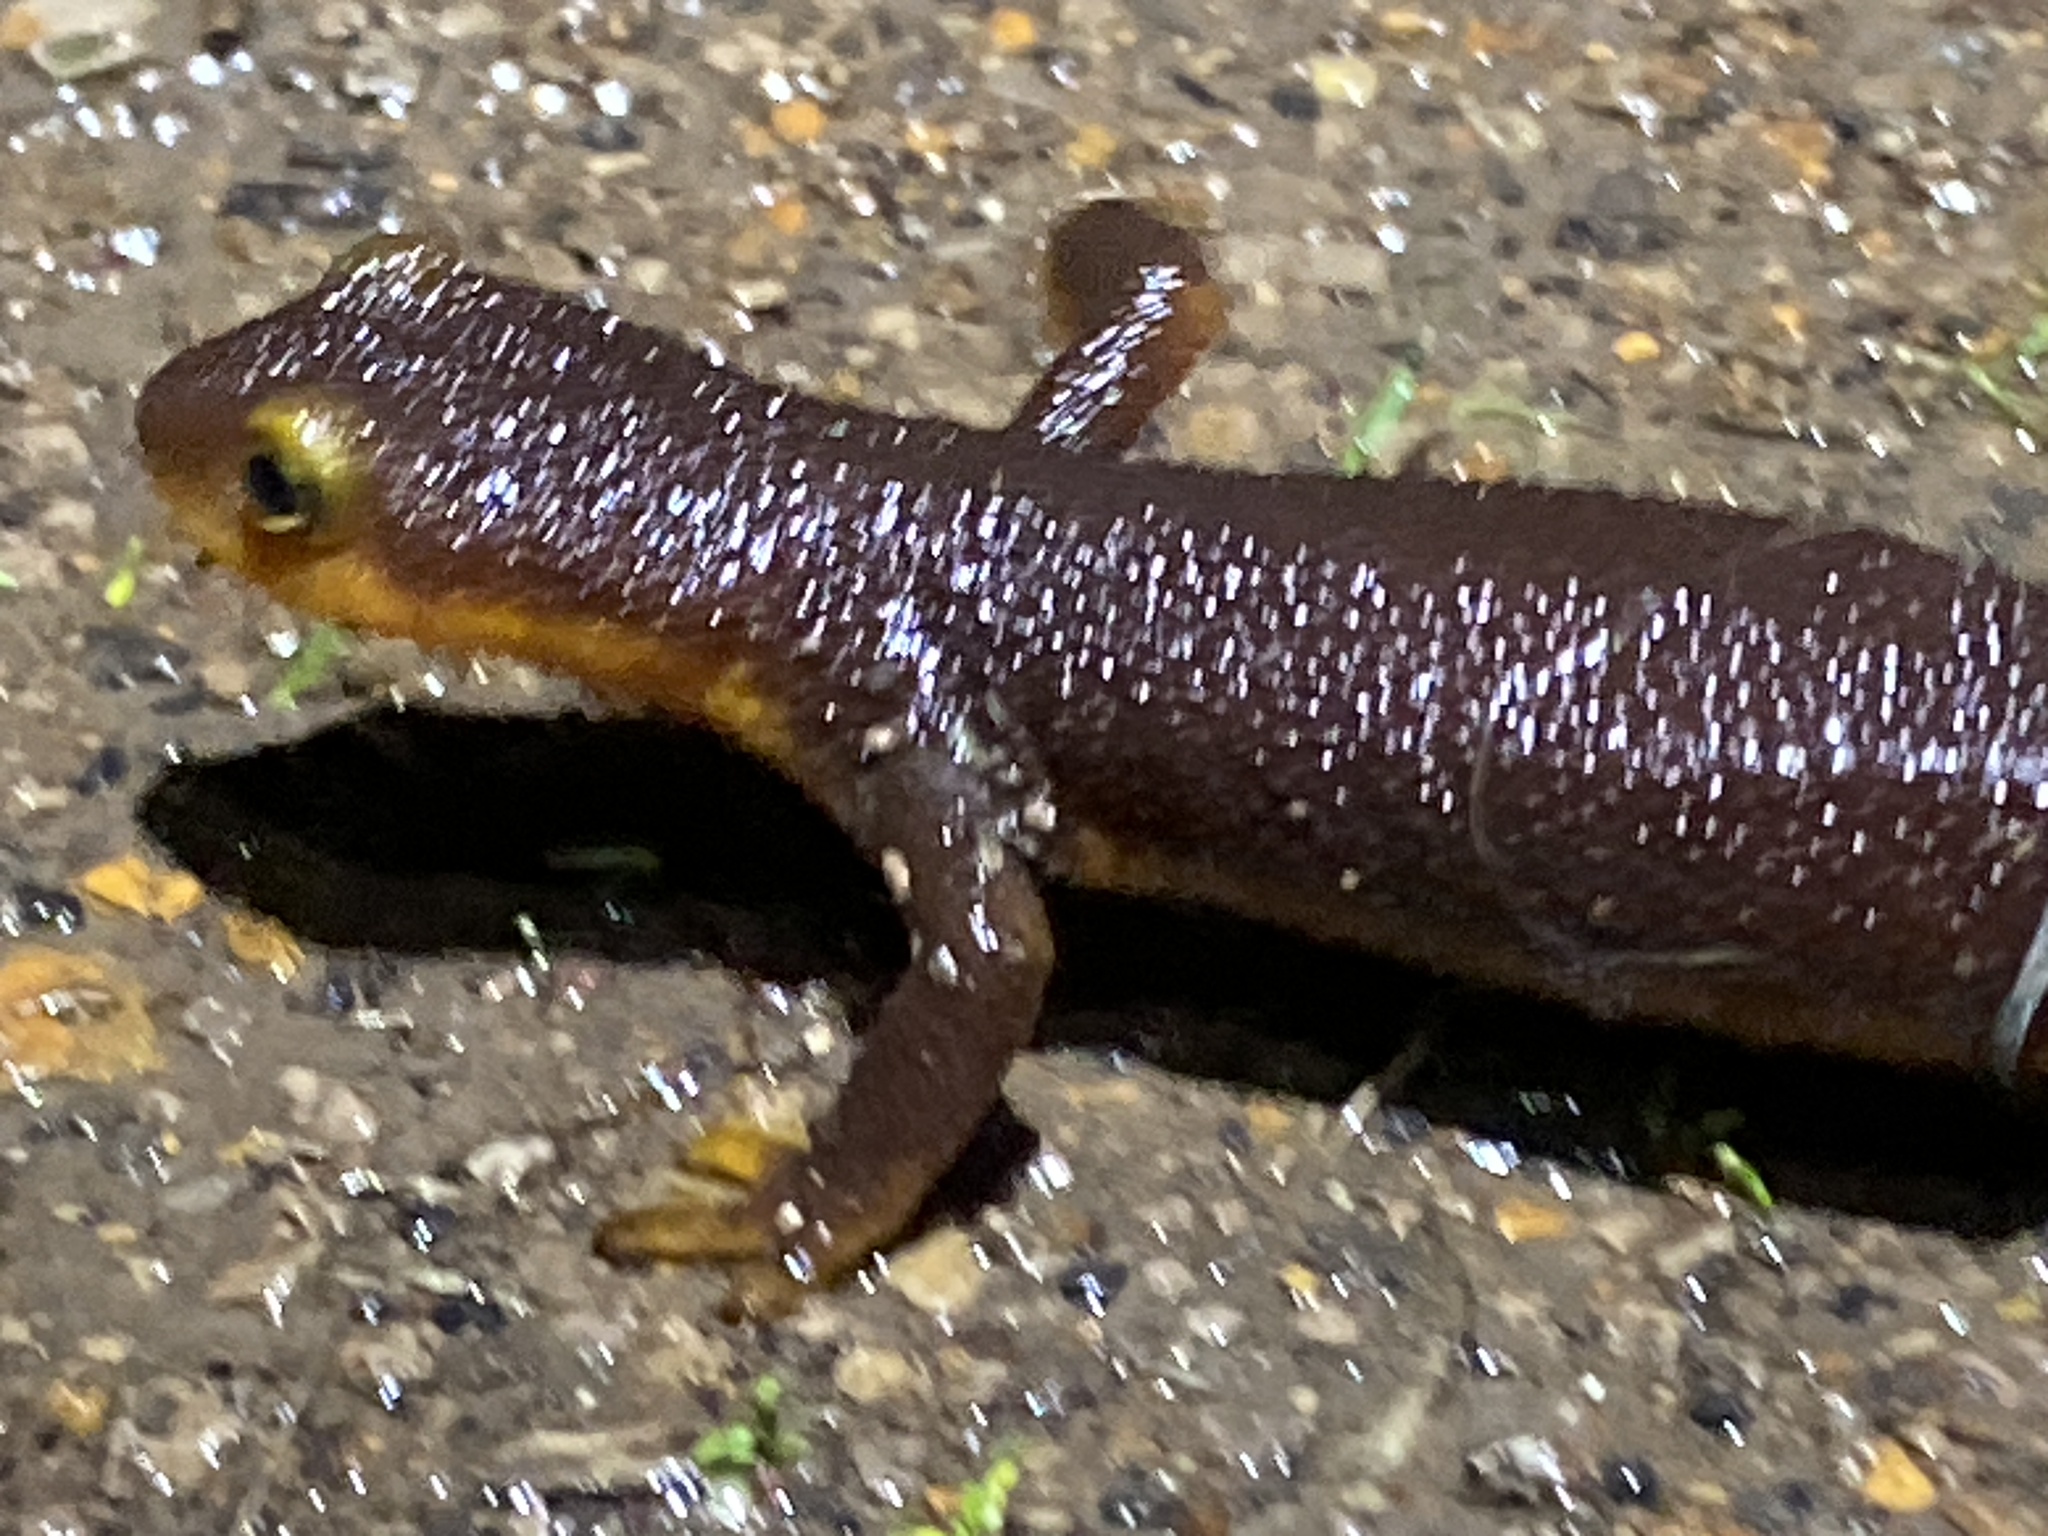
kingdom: Animalia
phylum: Chordata
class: Amphibia
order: Caudata
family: Salamandridae
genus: Taricha
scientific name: Taricha torosa
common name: California newt
